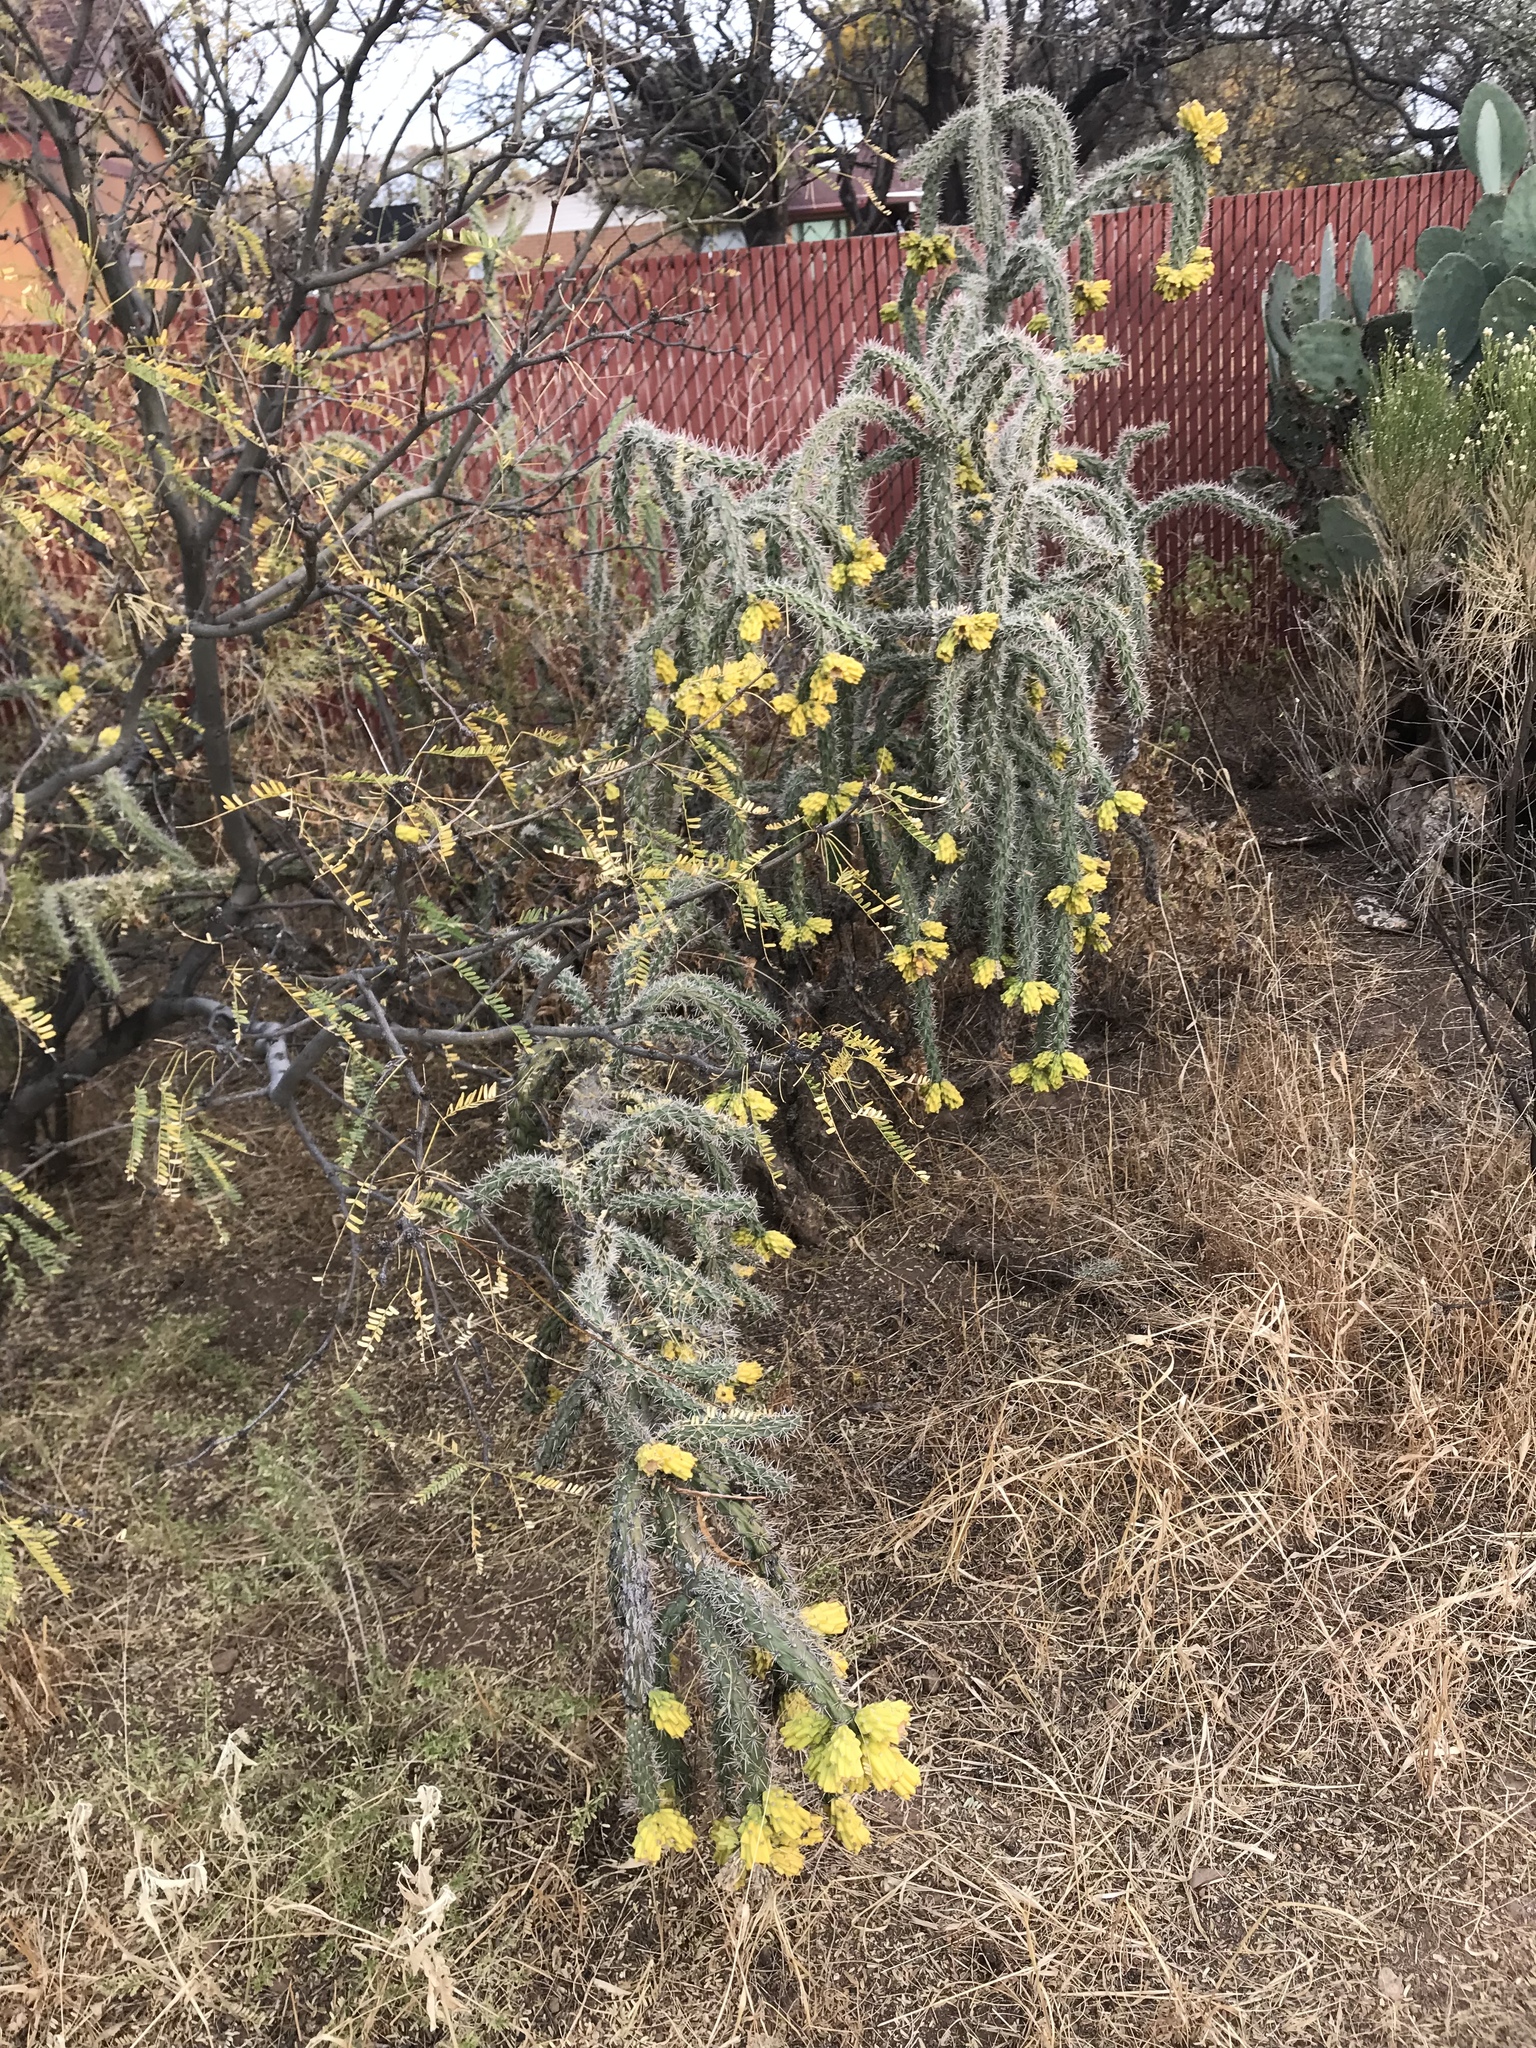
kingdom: Plantae
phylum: Tracheophyta
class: Magnoliopsida
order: Caryophyllales
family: Cactaceae
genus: Cylindropuntia
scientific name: Cylindropuntia imbricata
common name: Candelabrum cactus
